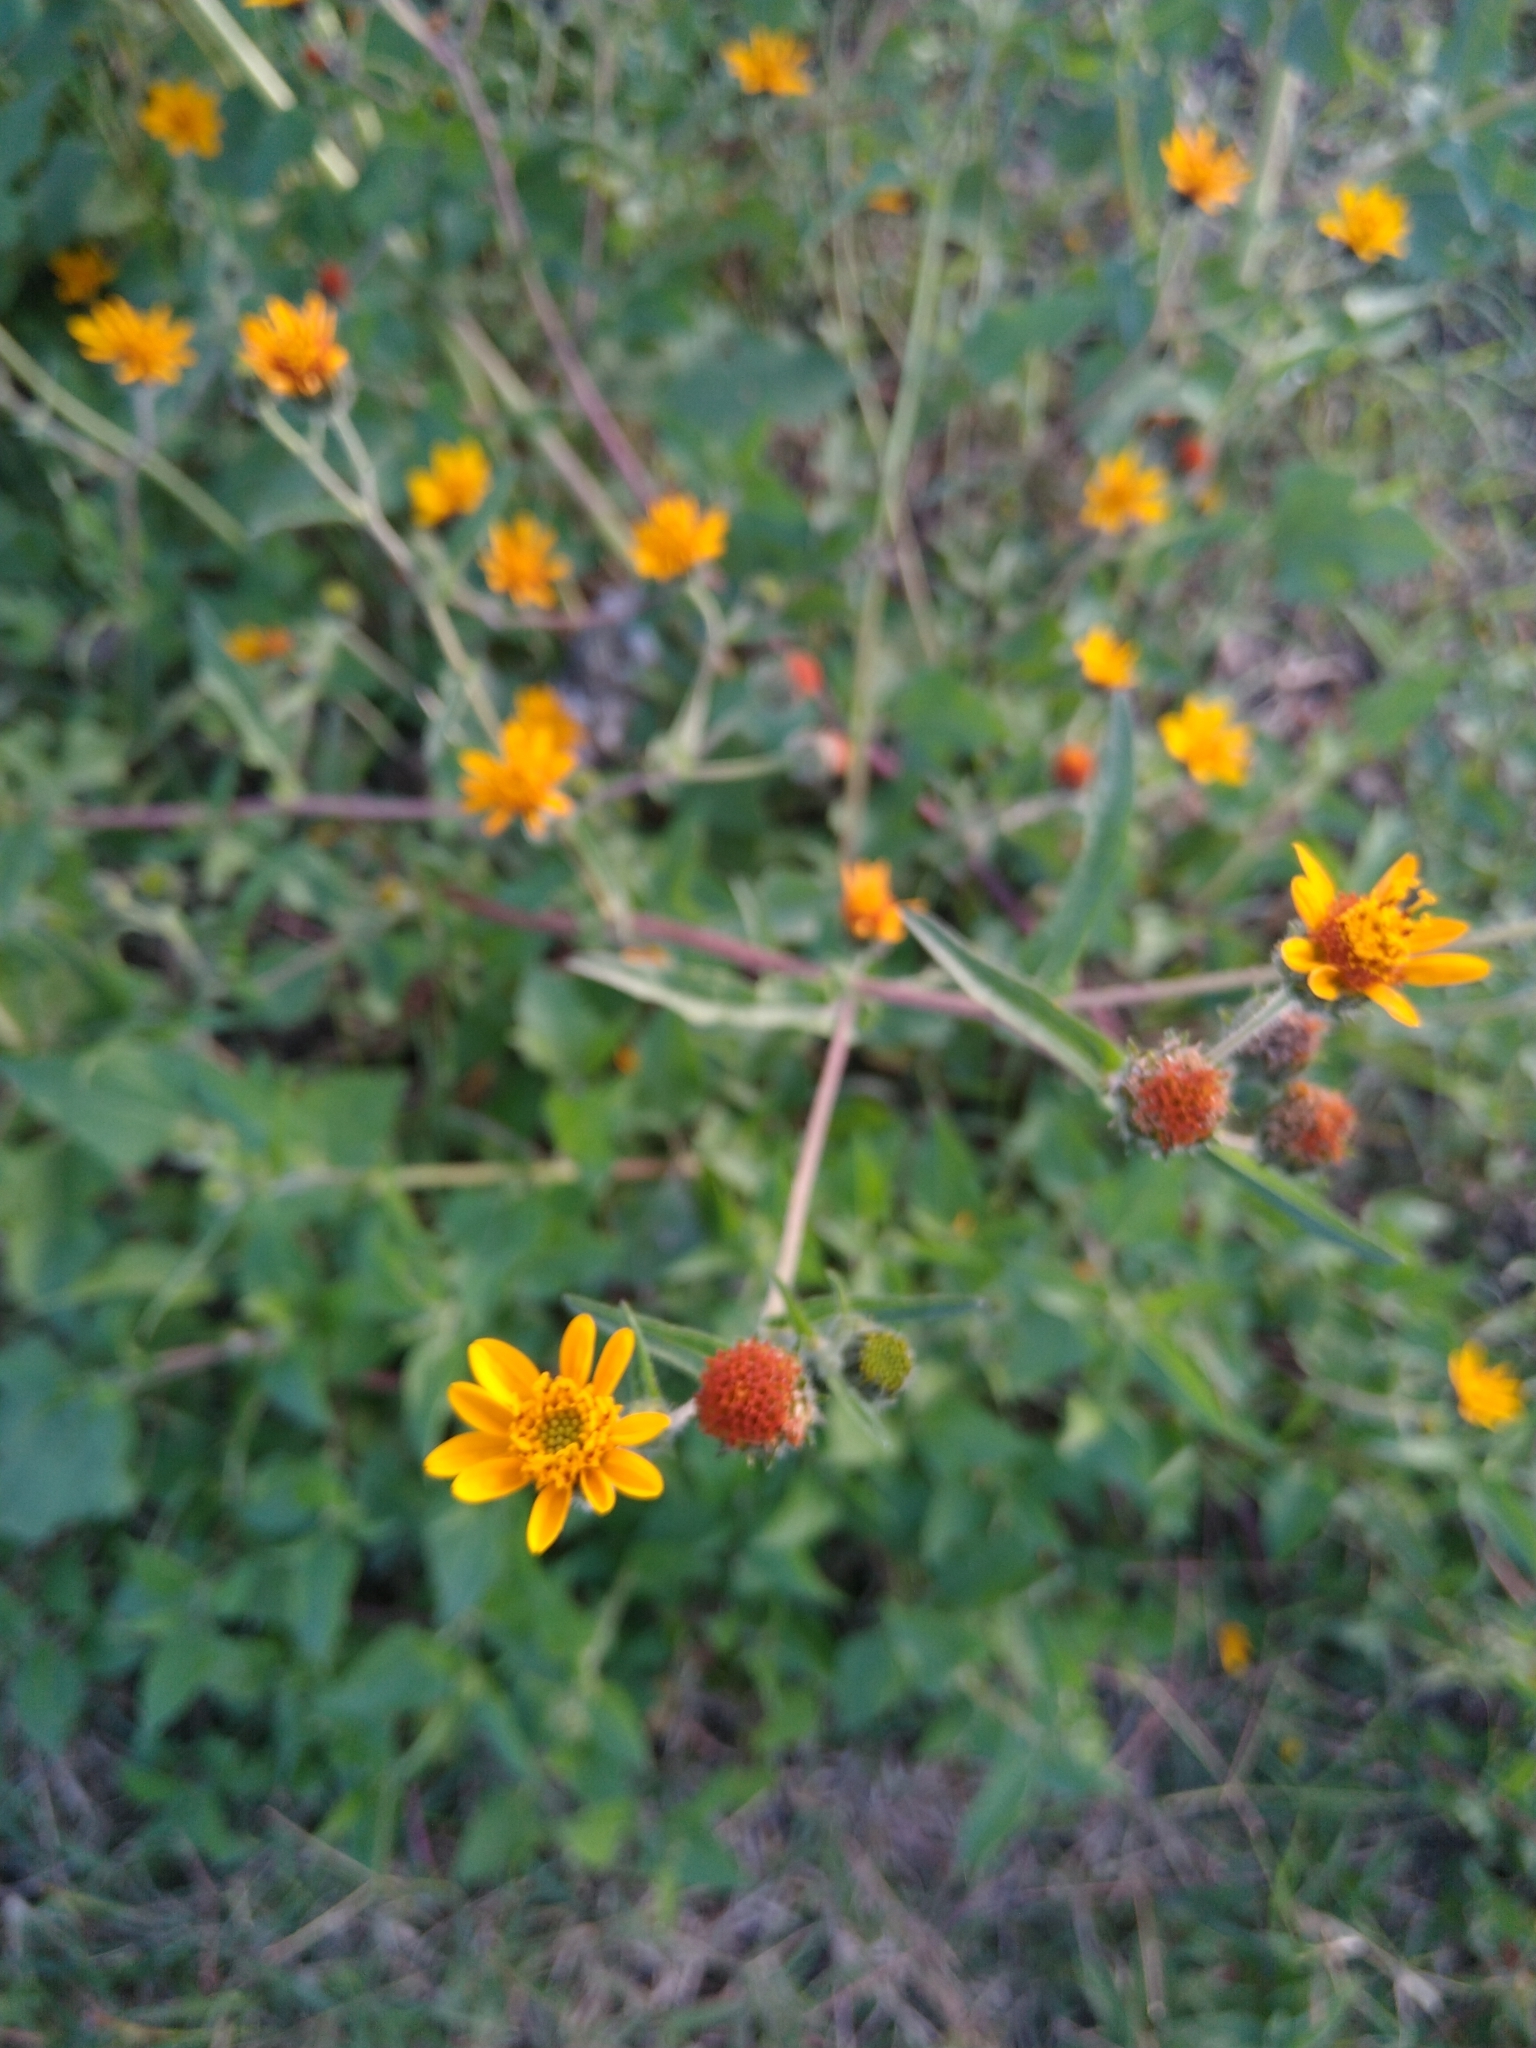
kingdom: Plantae
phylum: Tracheophyta
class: Magnoliopsida
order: Asterales
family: Asteraceae
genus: Simsia
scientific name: Simsia amplexicaulis
